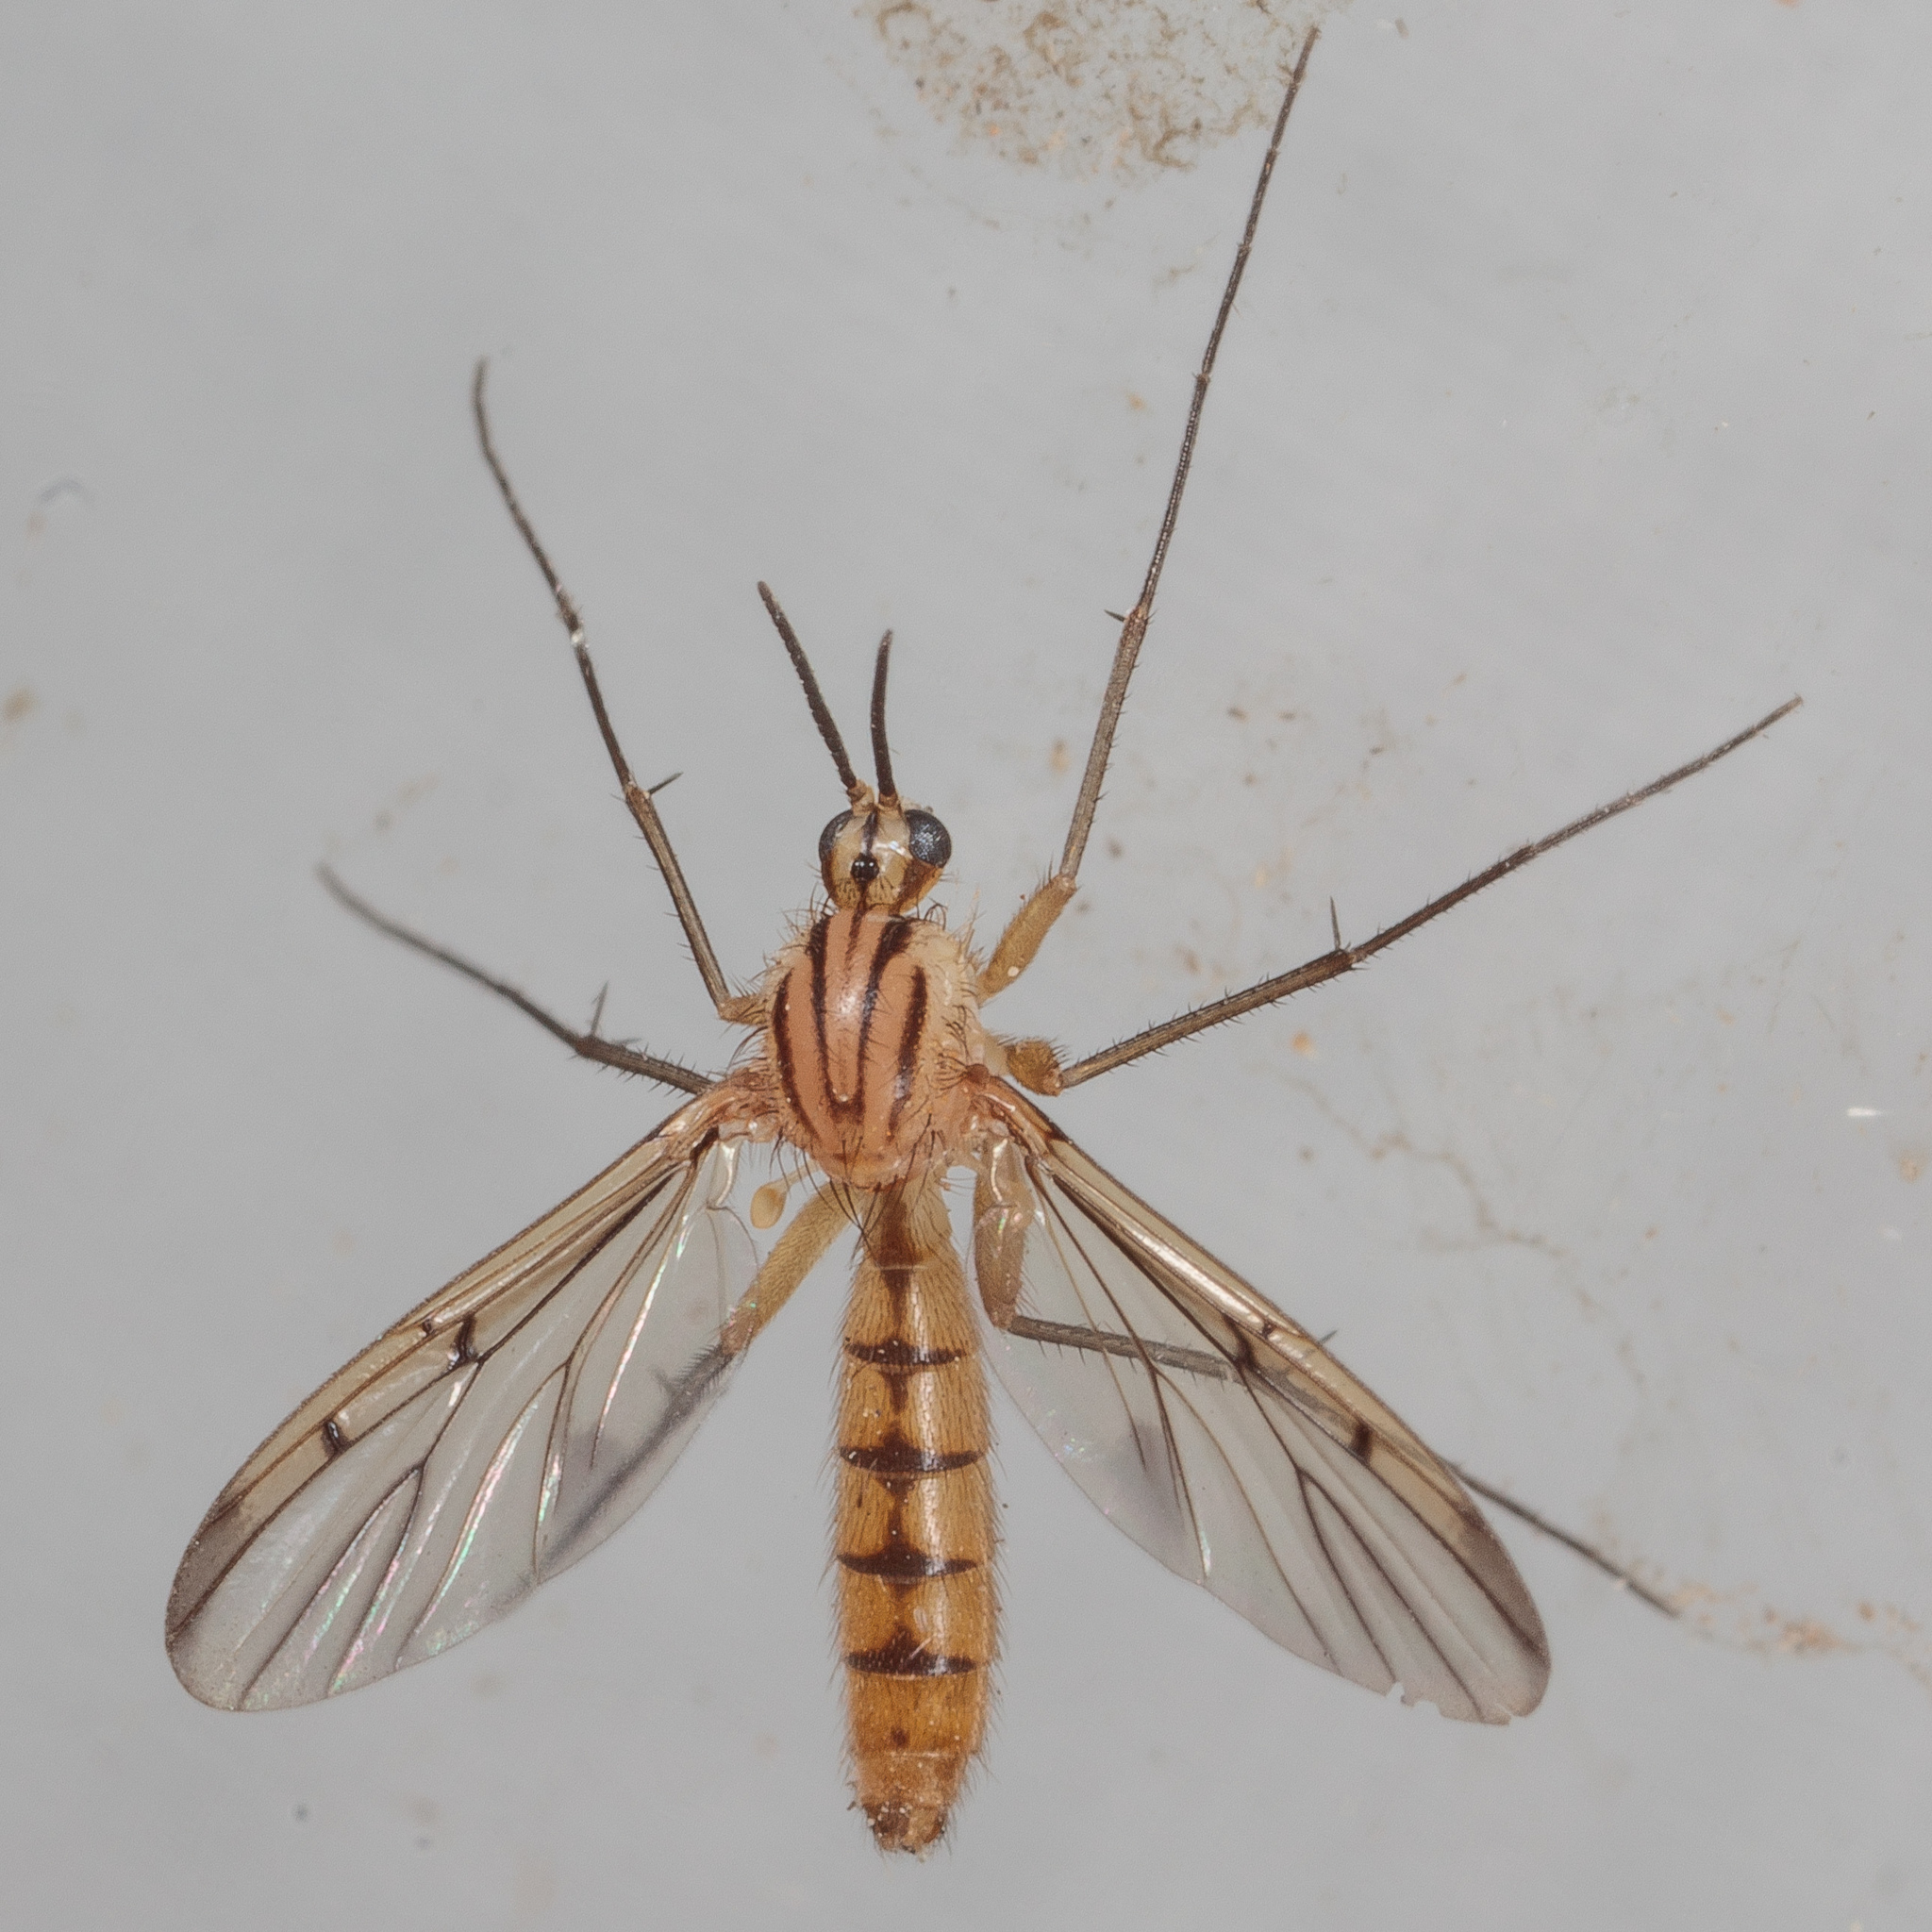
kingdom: Animalia
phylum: Arthropoda
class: Insecta
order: Diptera
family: Mycetophilidae
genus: Neoempheria
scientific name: Neoempheria balioptera
